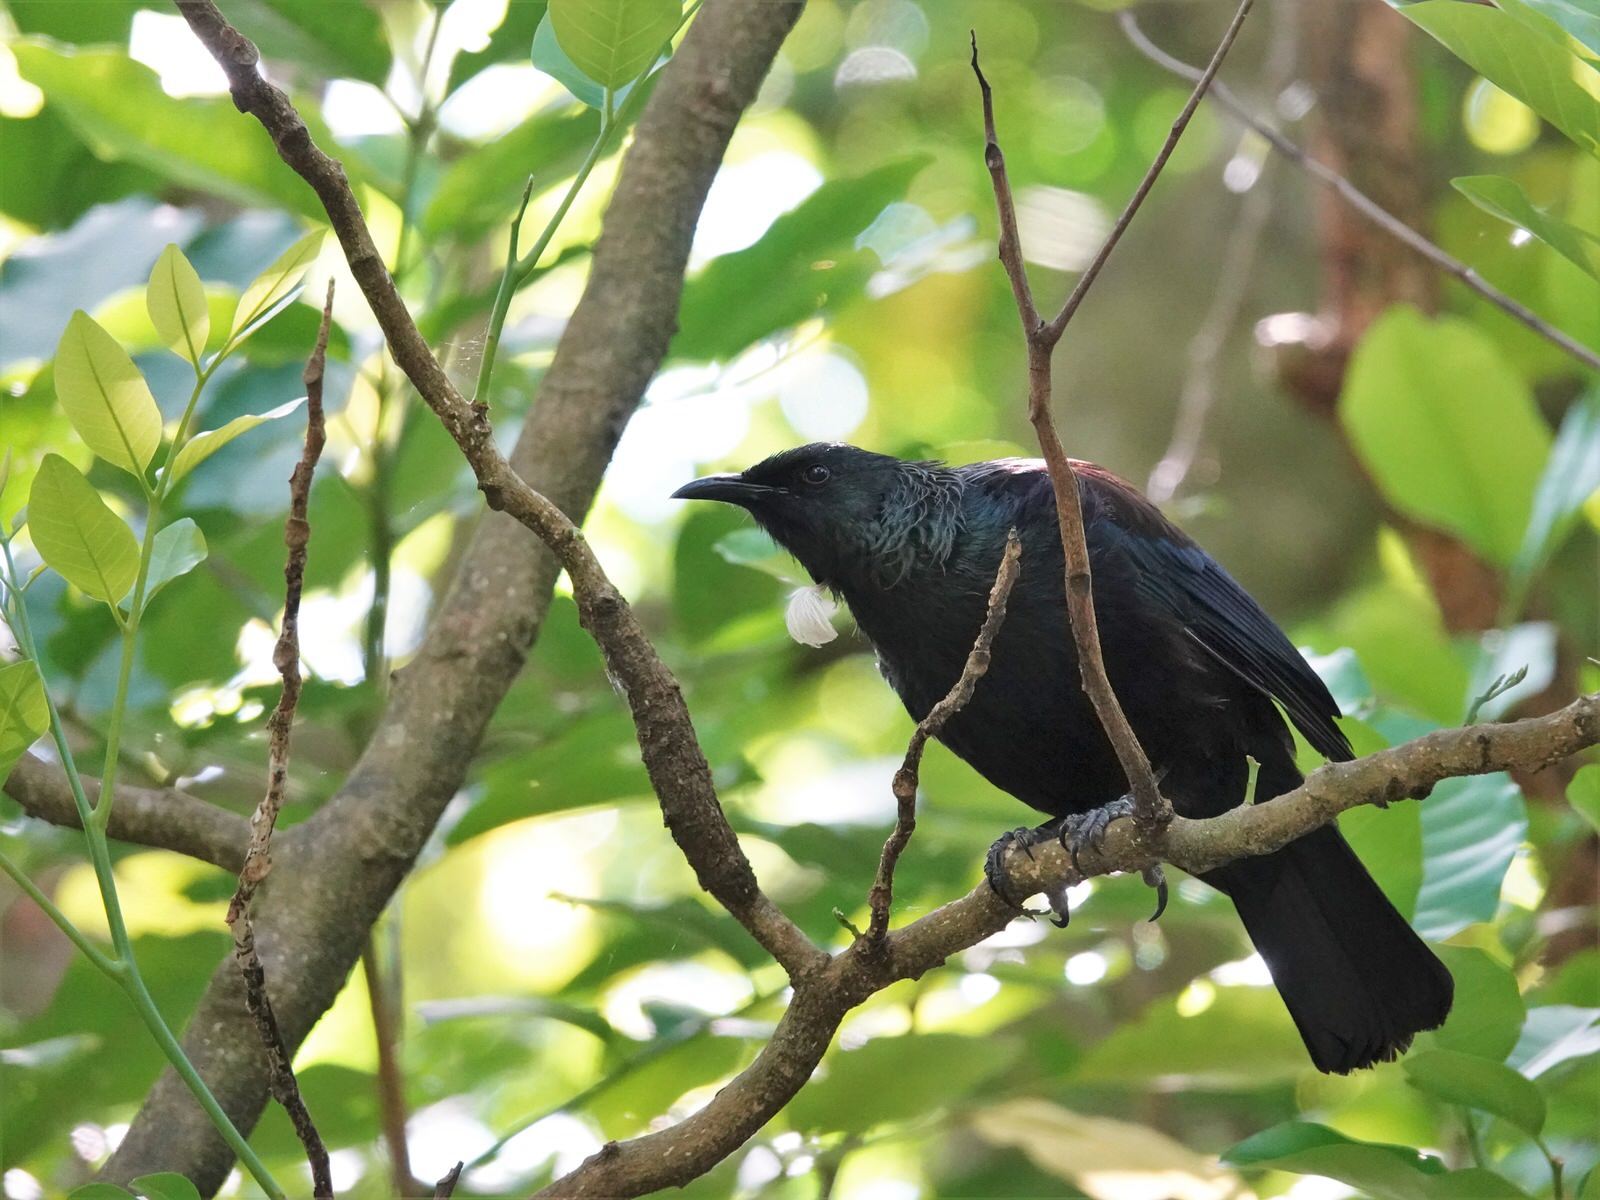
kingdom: Animalia
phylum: Chordata
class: Aves
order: Passeriformes
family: Meliphagidae
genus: Prosthemadera
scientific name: Prosthemadera novaeseelandiae
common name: Tui
